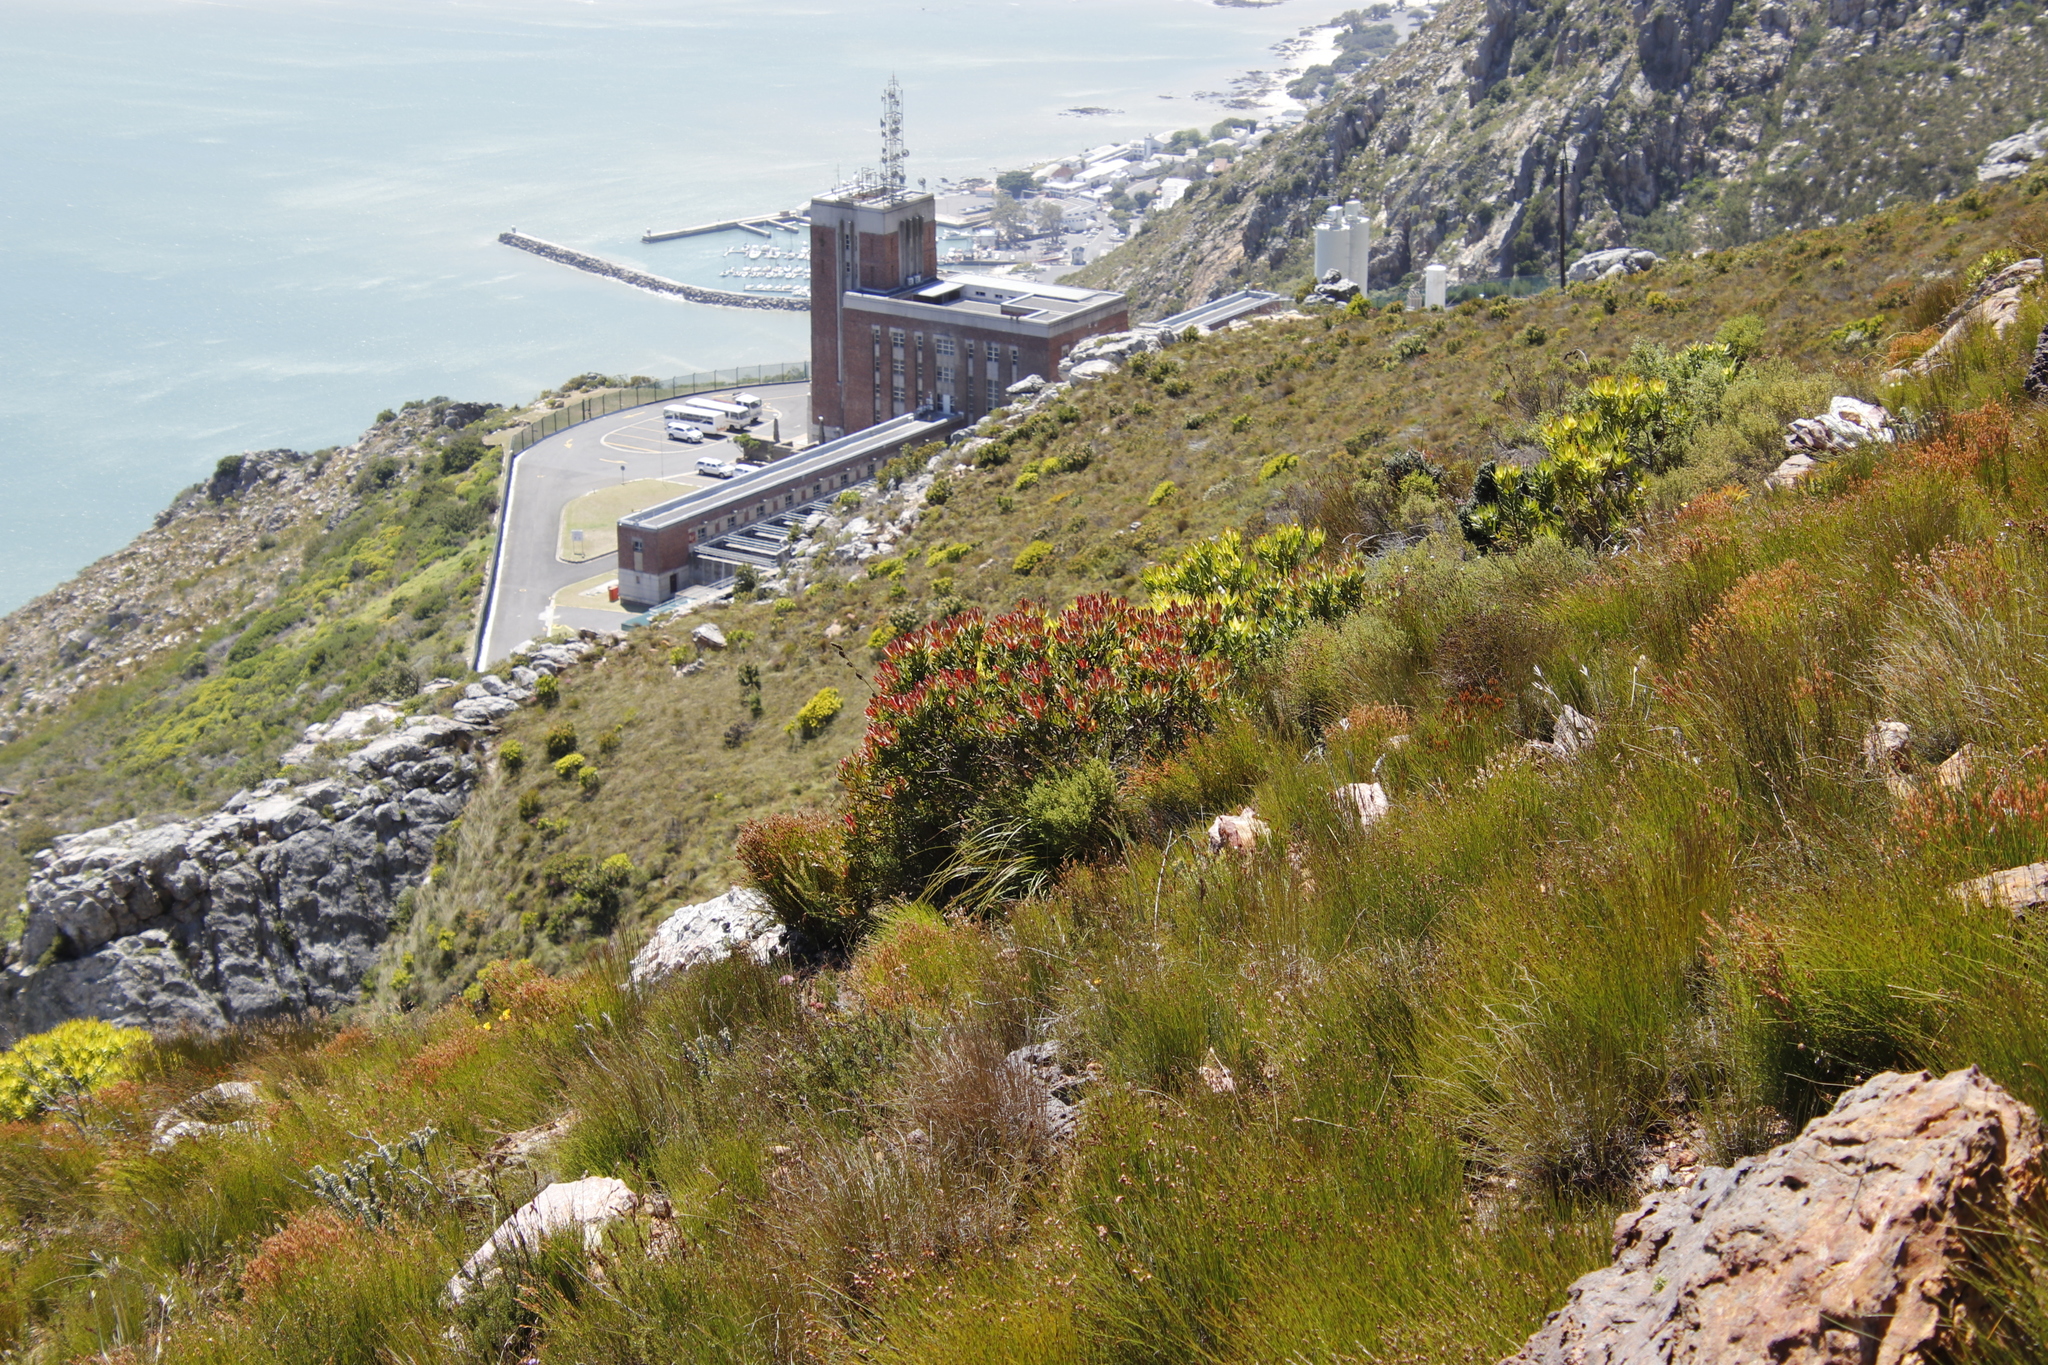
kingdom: Plantae
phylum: Tracheophyta
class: Magnoliopsida
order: Proteales
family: Proteaceae
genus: Leucadendron
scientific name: Leucadendron sessile
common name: Western sunbush
